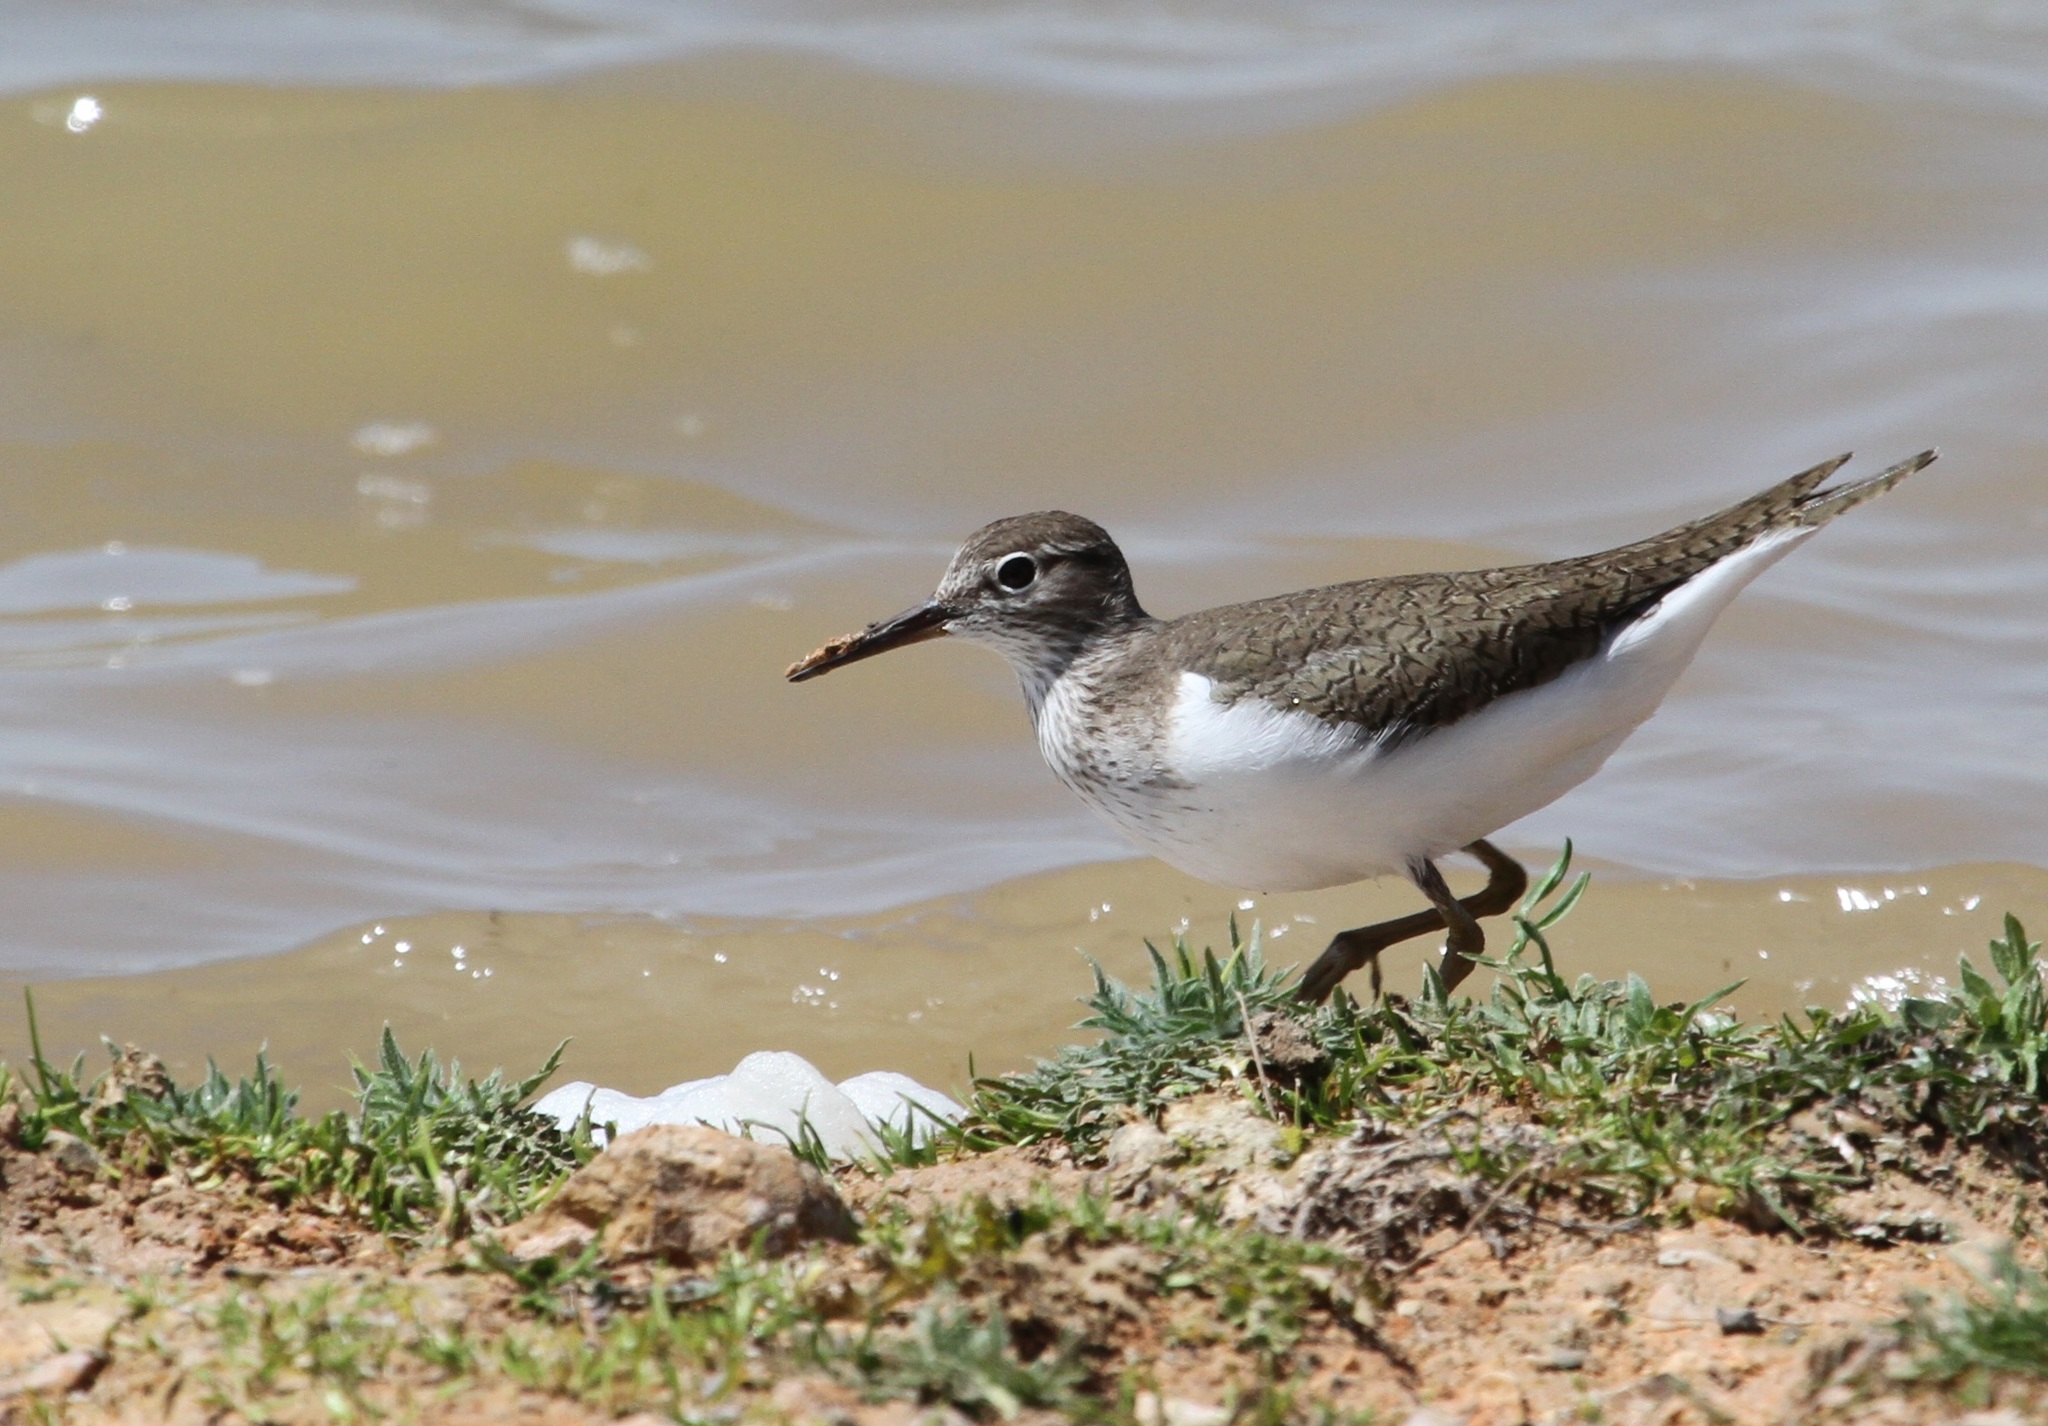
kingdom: Animalia
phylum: Chordata
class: Aves
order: Charadriiformes
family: Scolopacidae
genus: Actitis
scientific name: Actitis hypoleucos
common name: Common sandpiper
